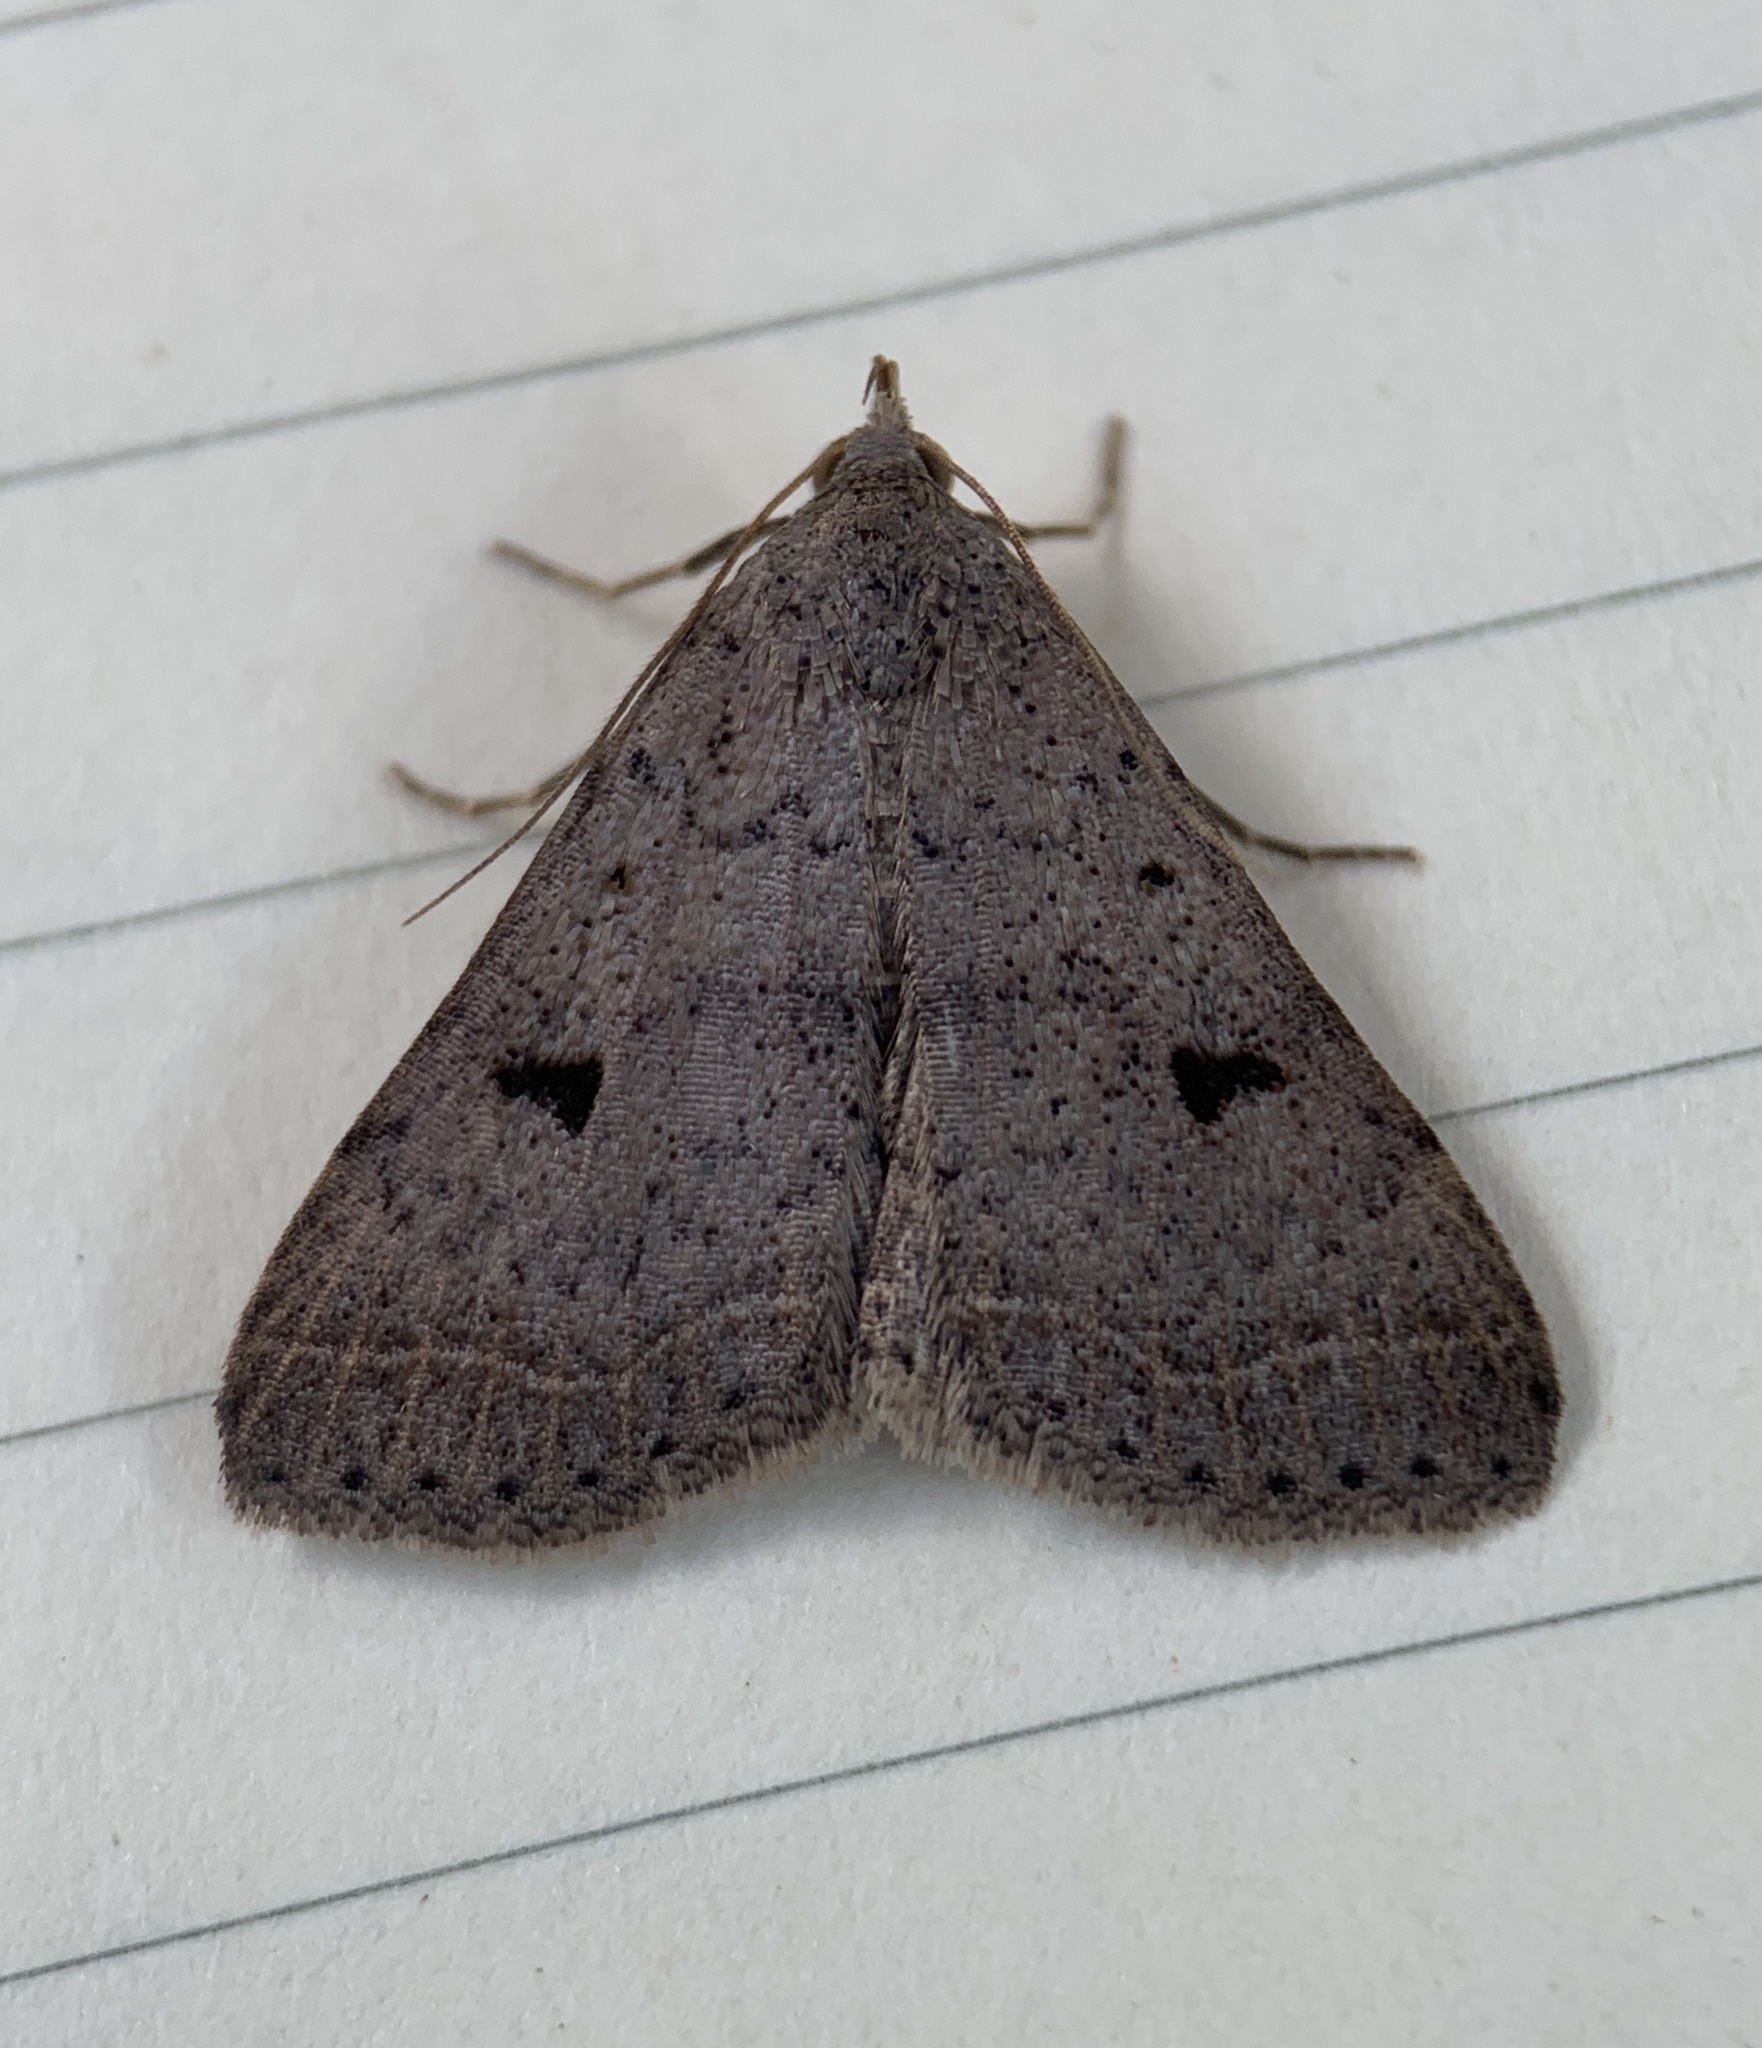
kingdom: Animalia
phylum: Arthropoda
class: Insecta
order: Lepidoptera
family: Erebidae
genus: Bleptina
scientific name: Bleptina caradrinalis
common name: Bent-winged owlet
